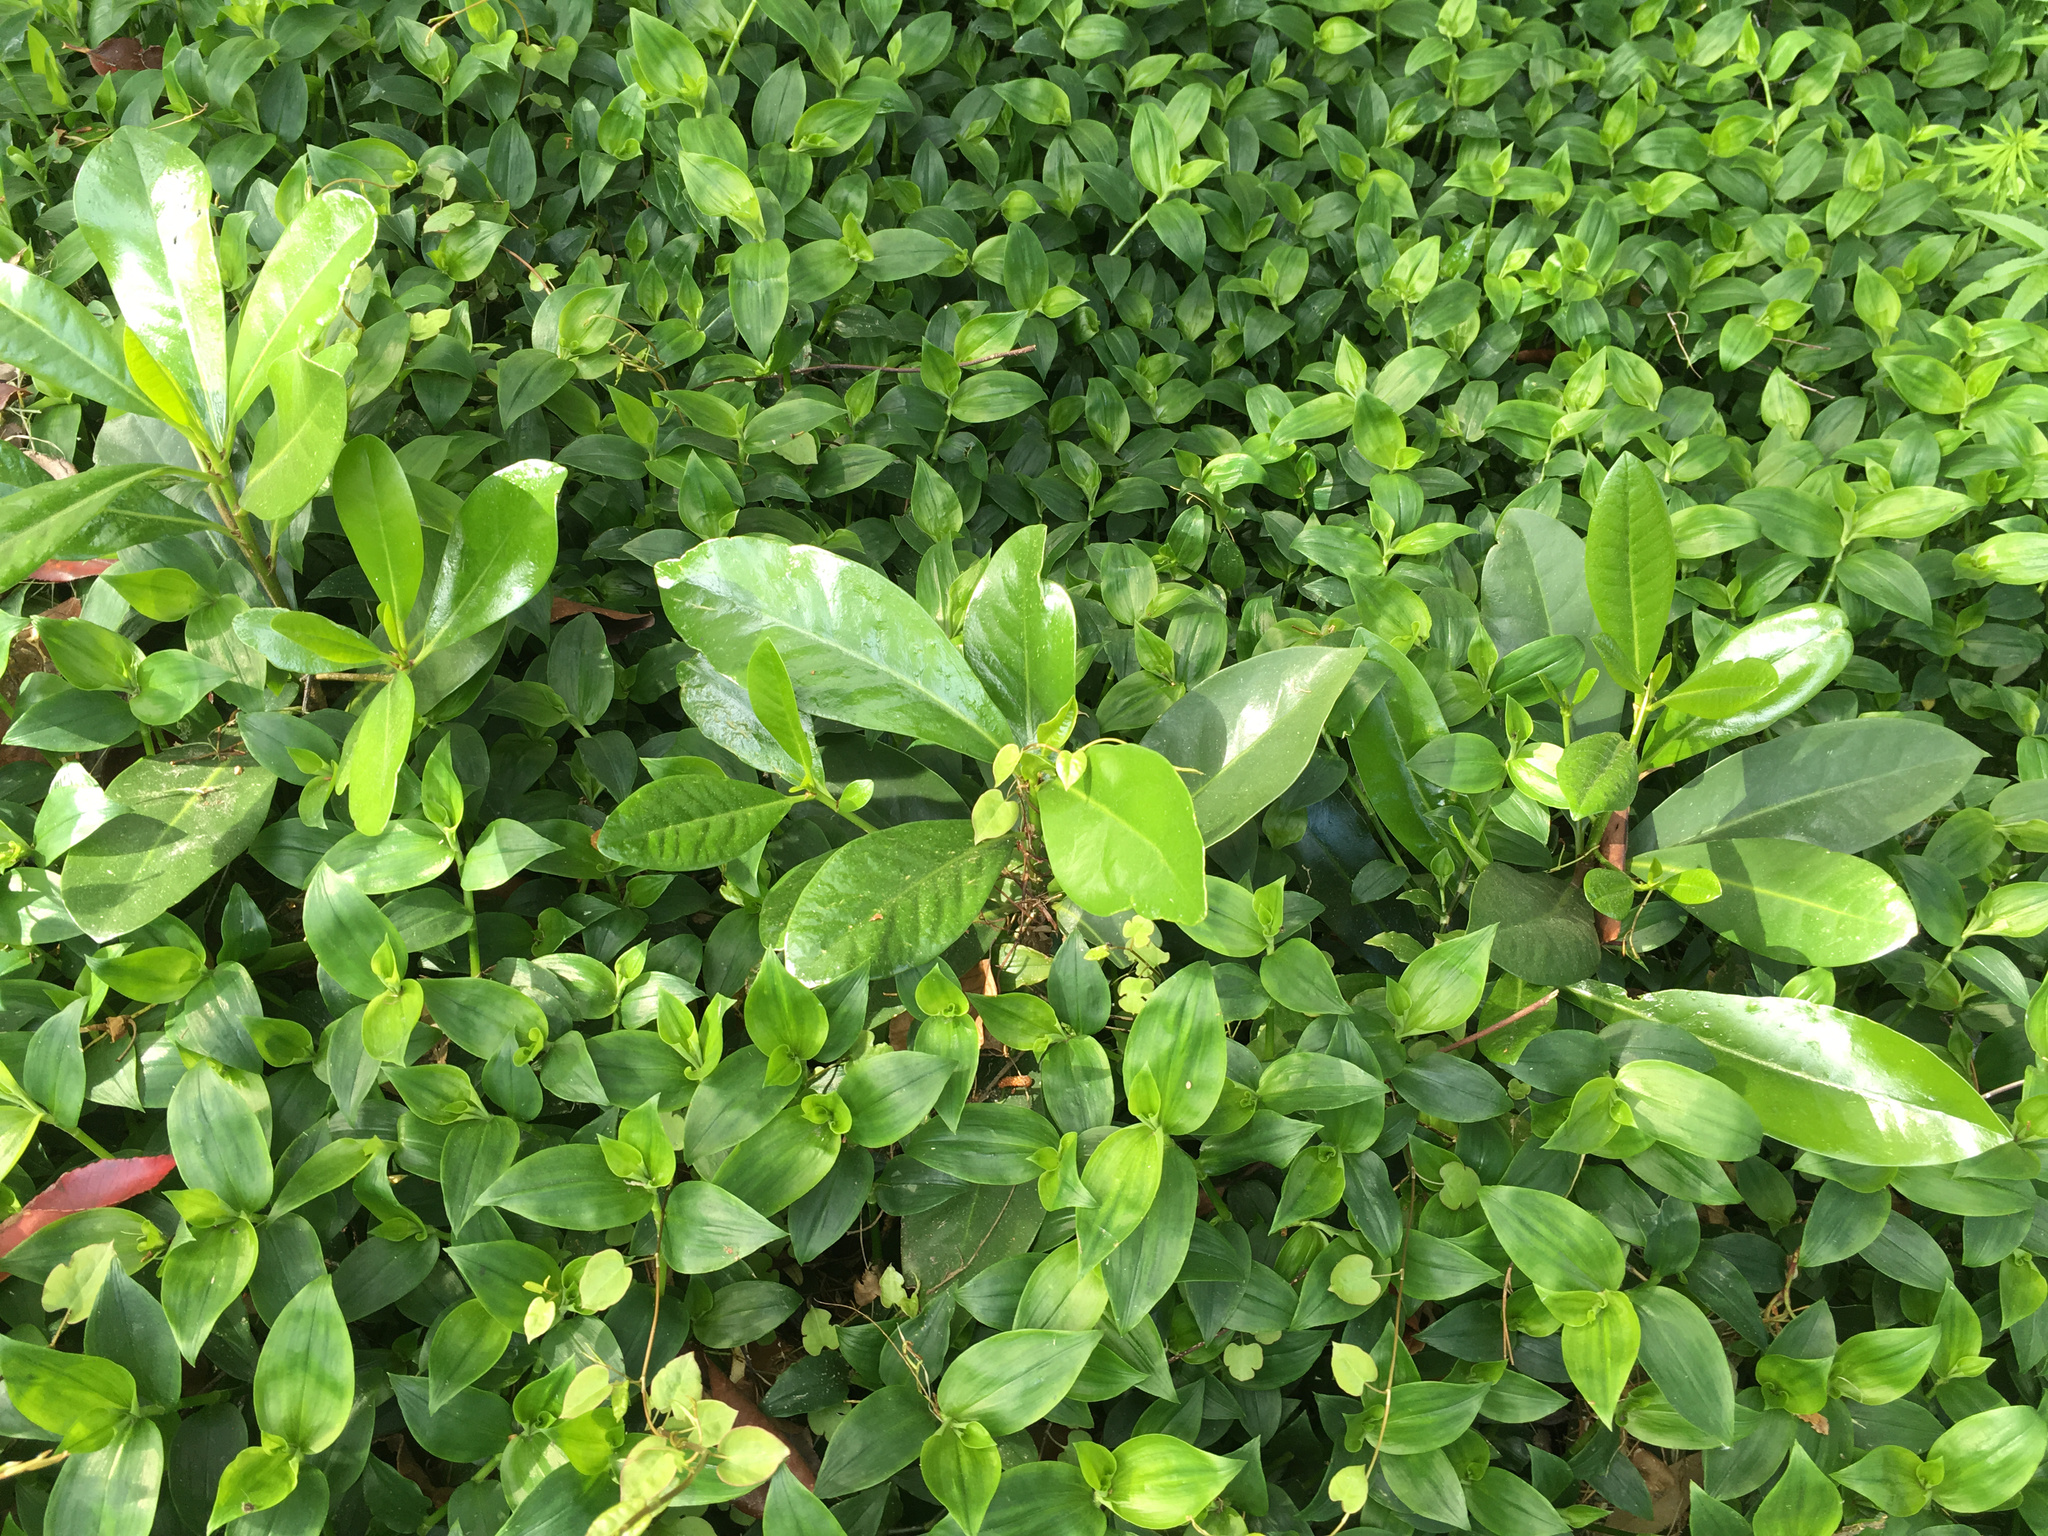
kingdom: Plantae
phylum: Tracheophyta
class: Magnoliopsida
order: Cucurbitales
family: Corynocarpaceae
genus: Corynocarpus
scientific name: Corynocarpus laevigatus
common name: New zealand laurel
